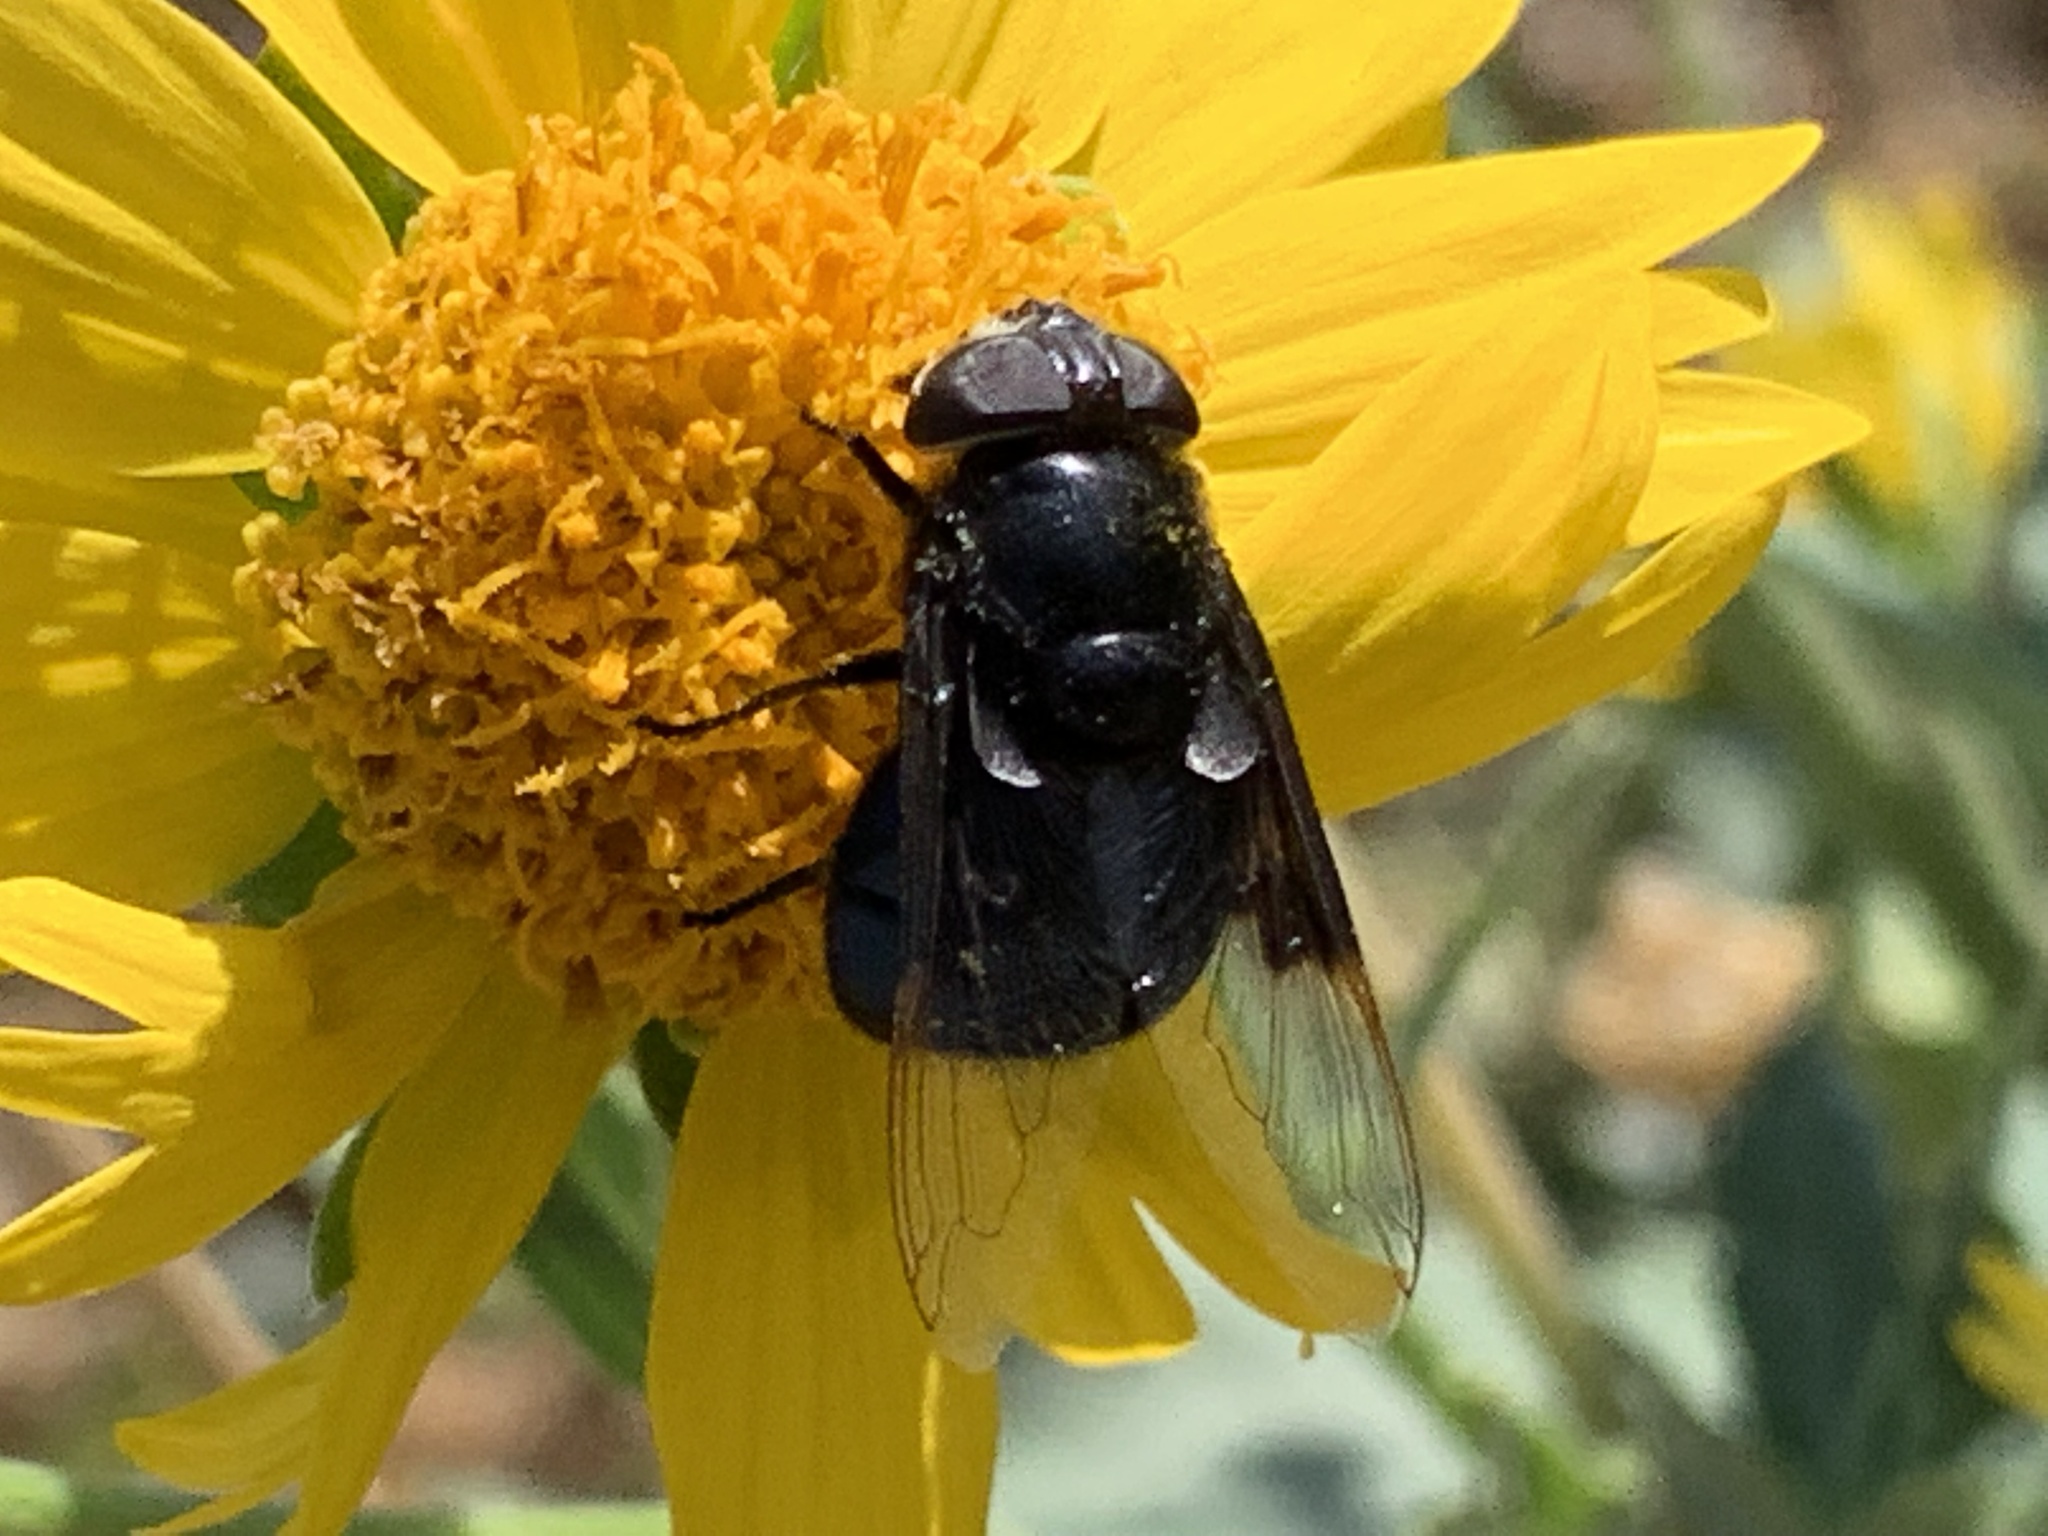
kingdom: Animalia
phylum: Arthropoda
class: Insecta
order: Diptera
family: Syrphidae
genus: Copestylum
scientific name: Copestylum mexicanum
